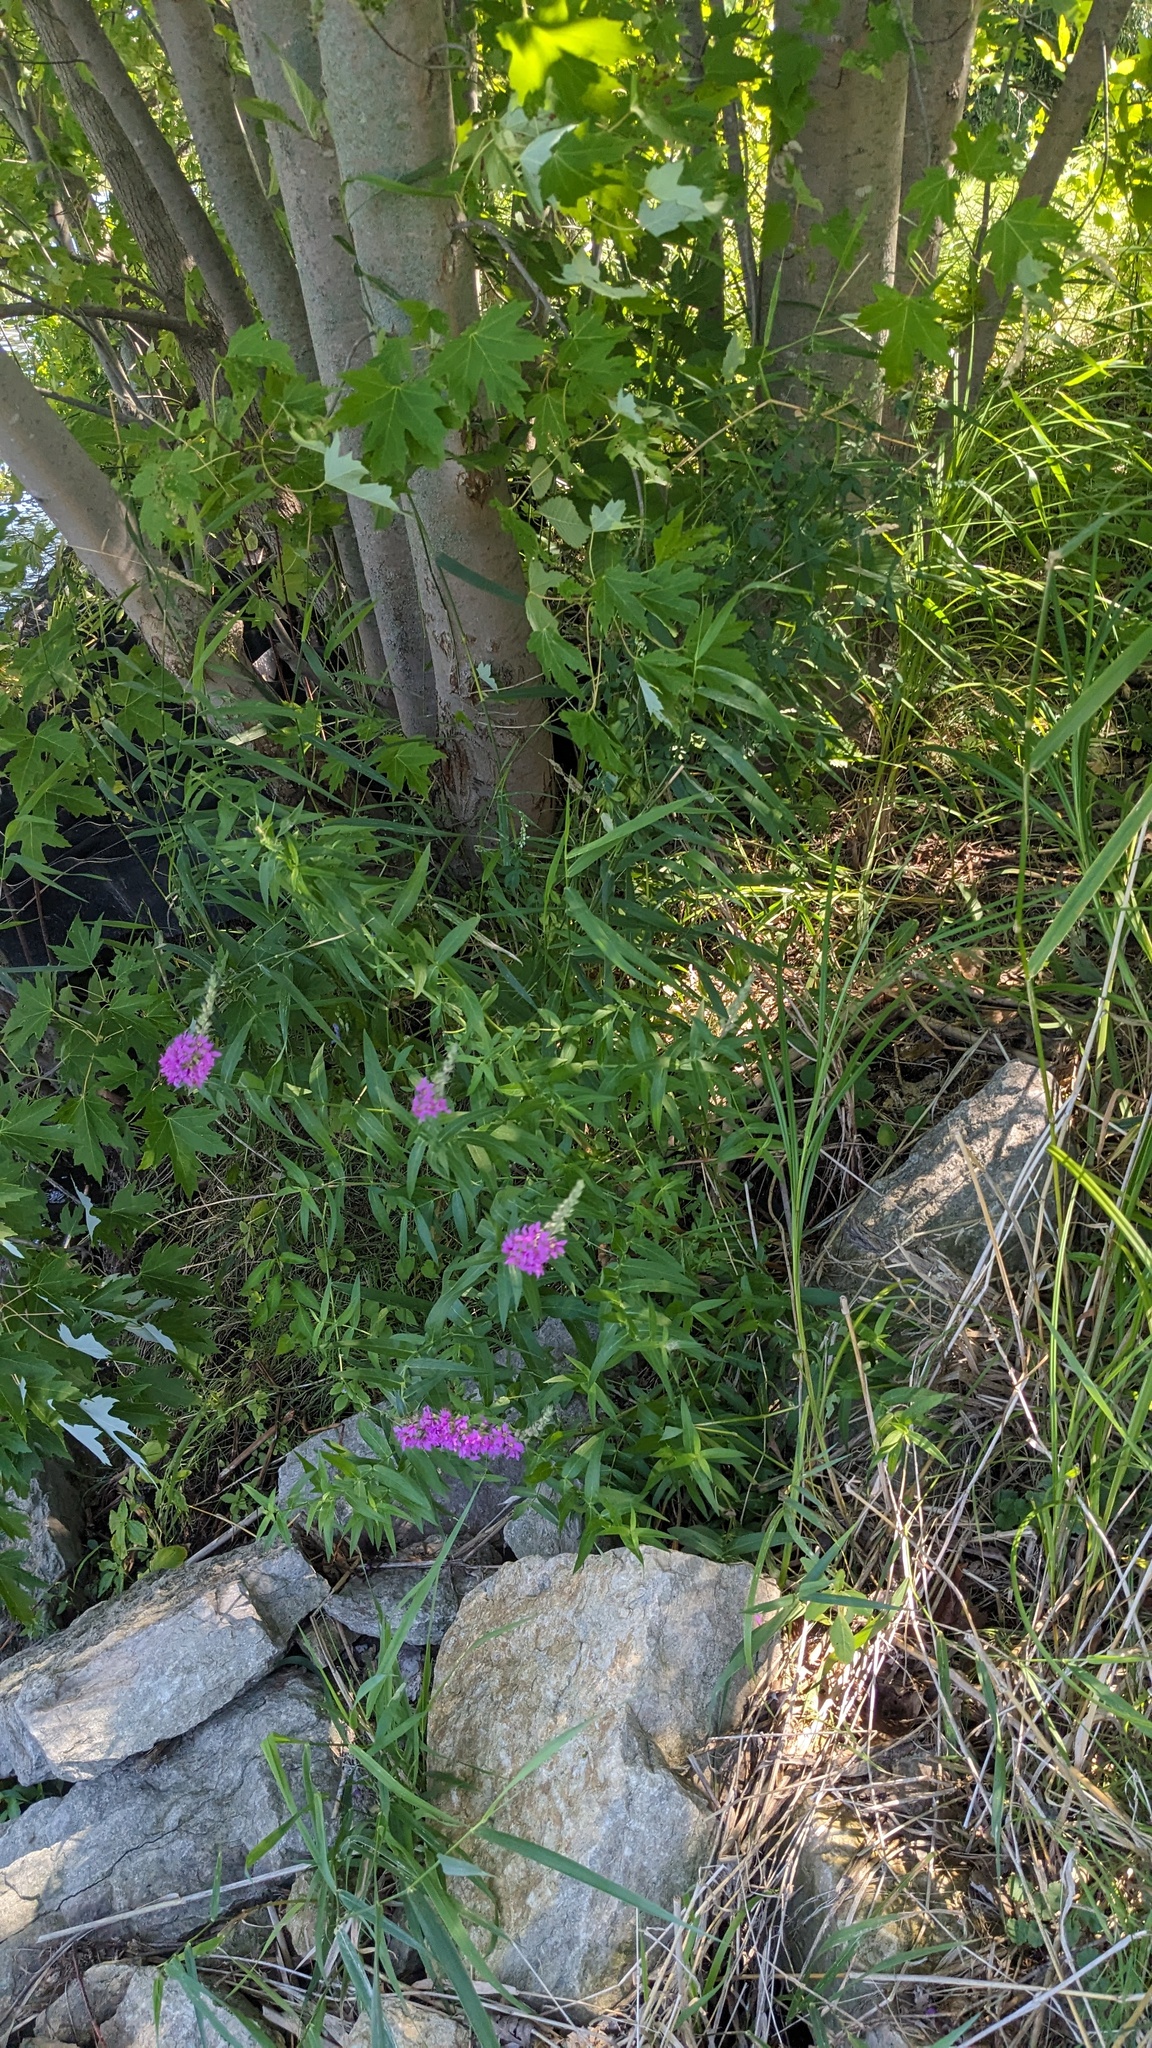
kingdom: Plantae
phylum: Tracheophyta
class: Magnoliopsida
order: Myrtales
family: Lythraceae
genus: Lythrum
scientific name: Lythrum salicaria
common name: Purple loosestrife
